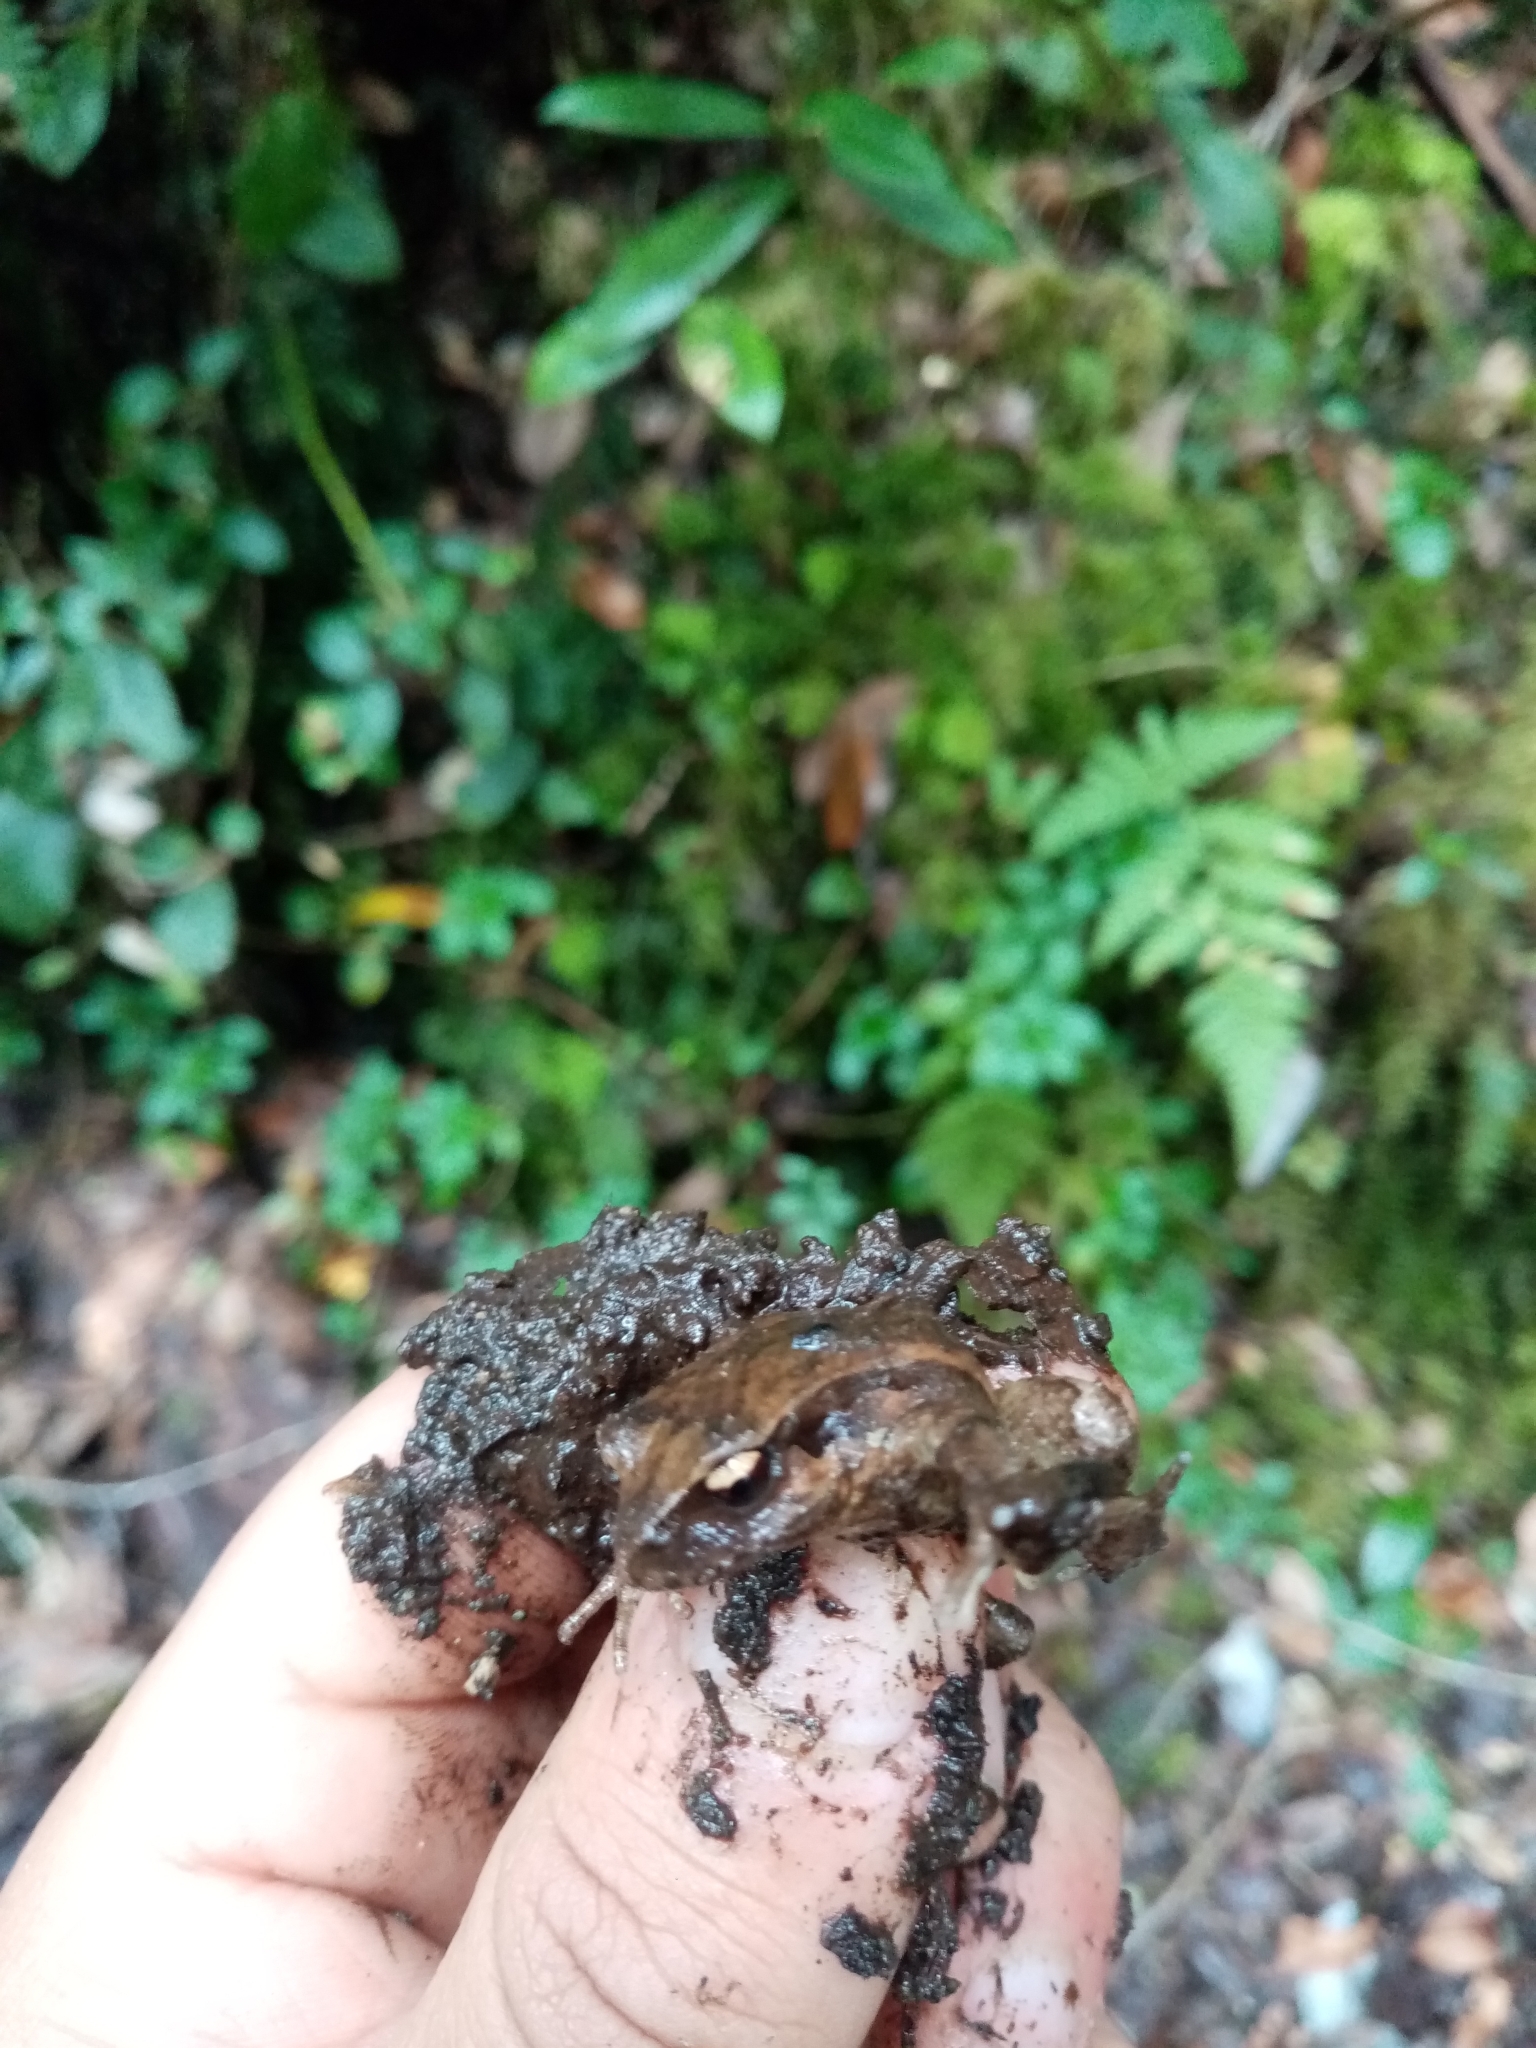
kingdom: Animalia
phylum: Chordata
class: Amphibia
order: Anura
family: Alsodidae
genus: Eupsophus
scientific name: Eupsophus calcaratus
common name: Chiloe island ground frog
